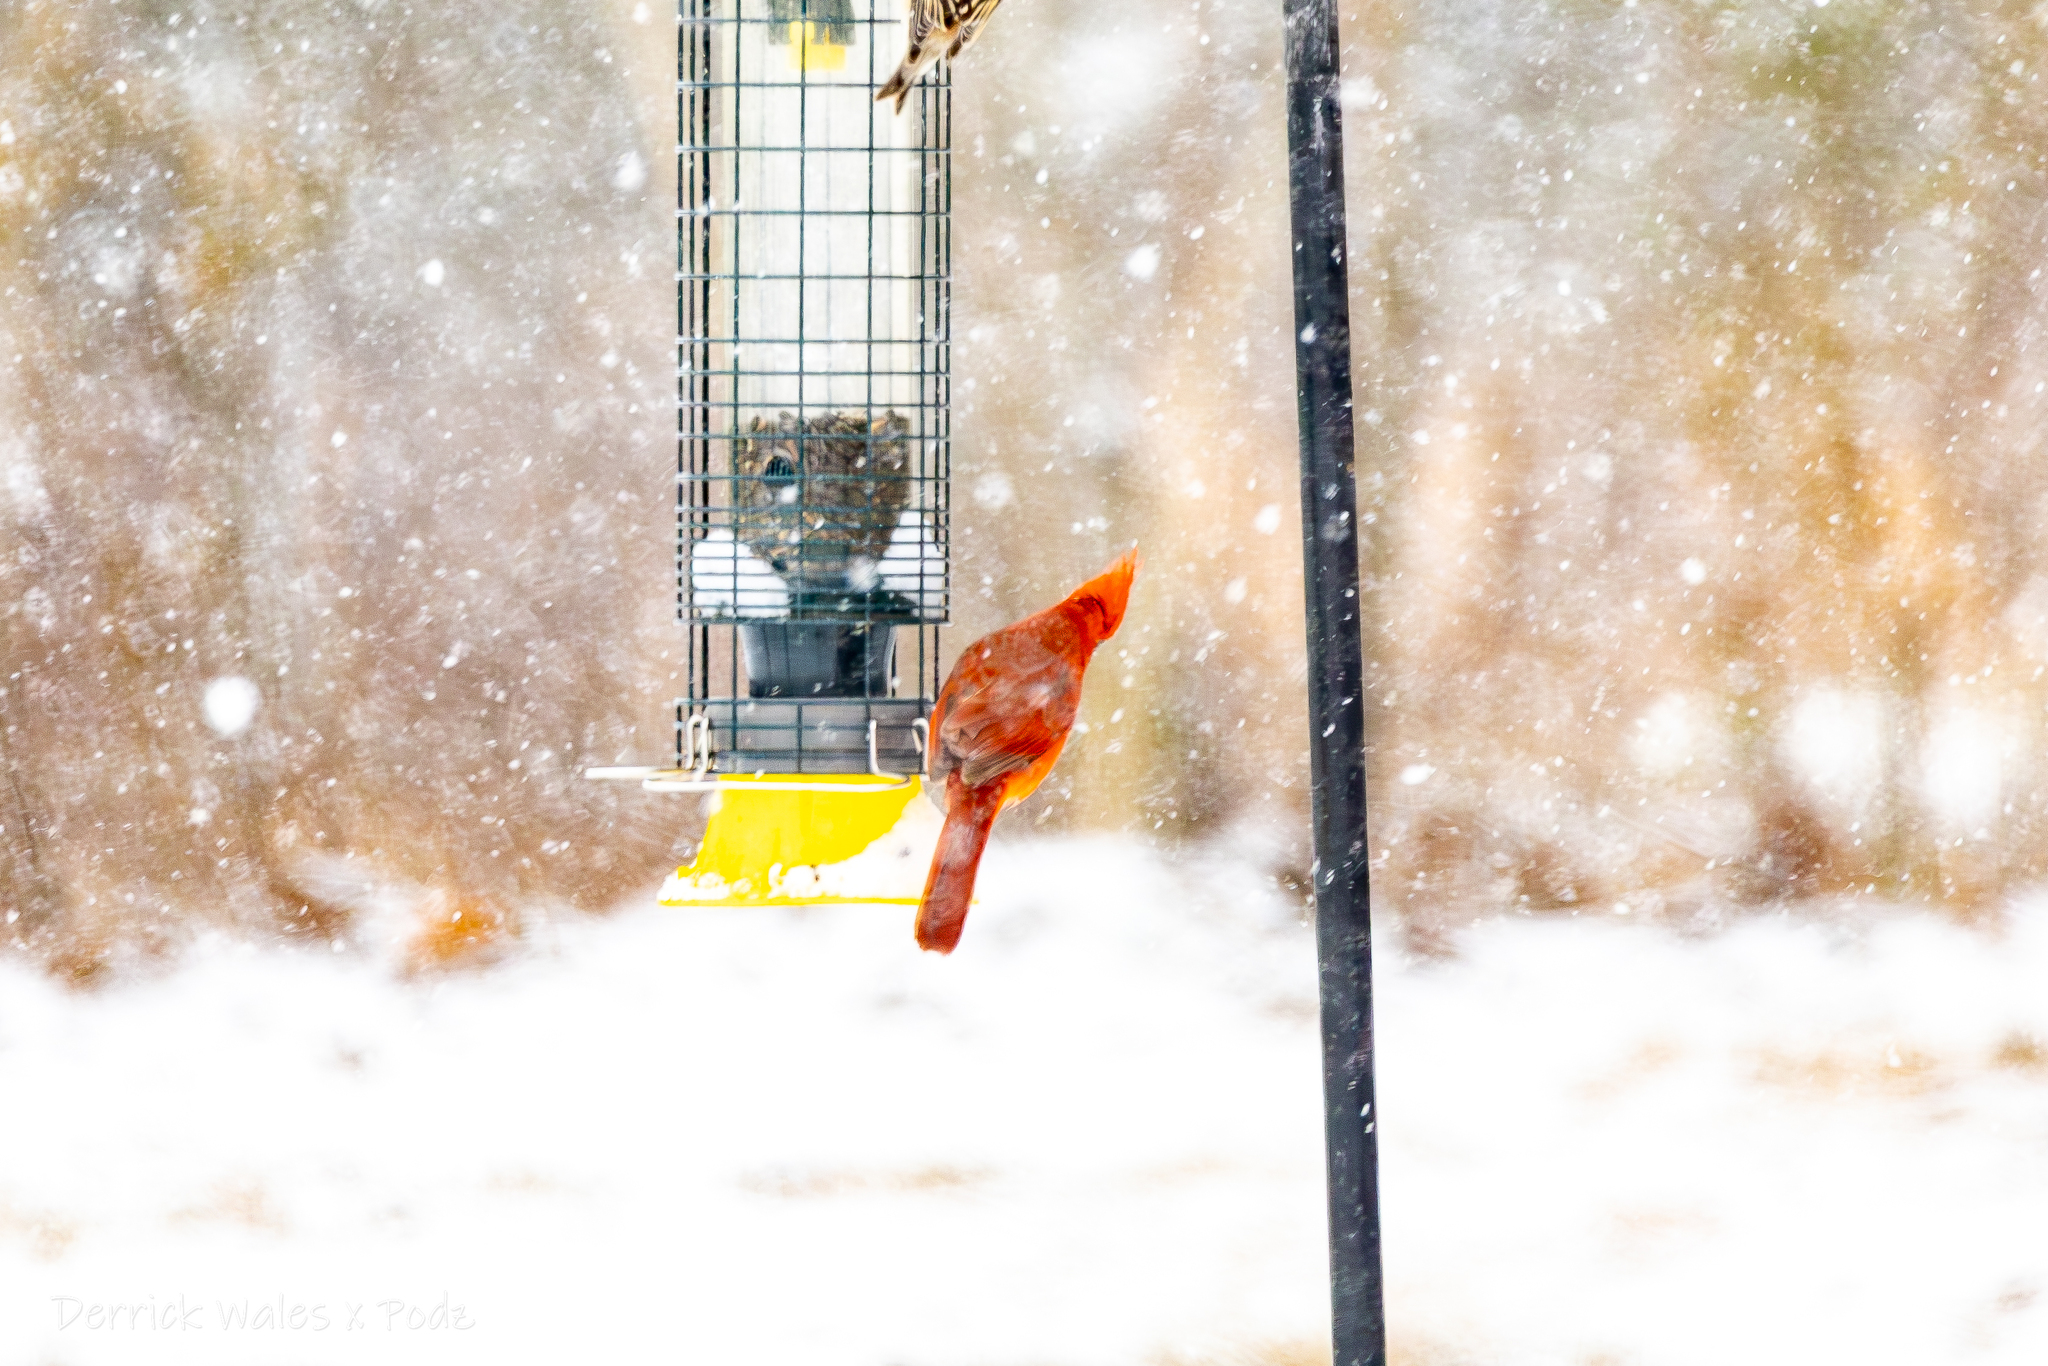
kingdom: Animalia
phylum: Chordata
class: Aves
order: Passeriformes
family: Cardinalidae
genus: Cardinalis
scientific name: Cardinalis cardinalis
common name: Northern cardinal
